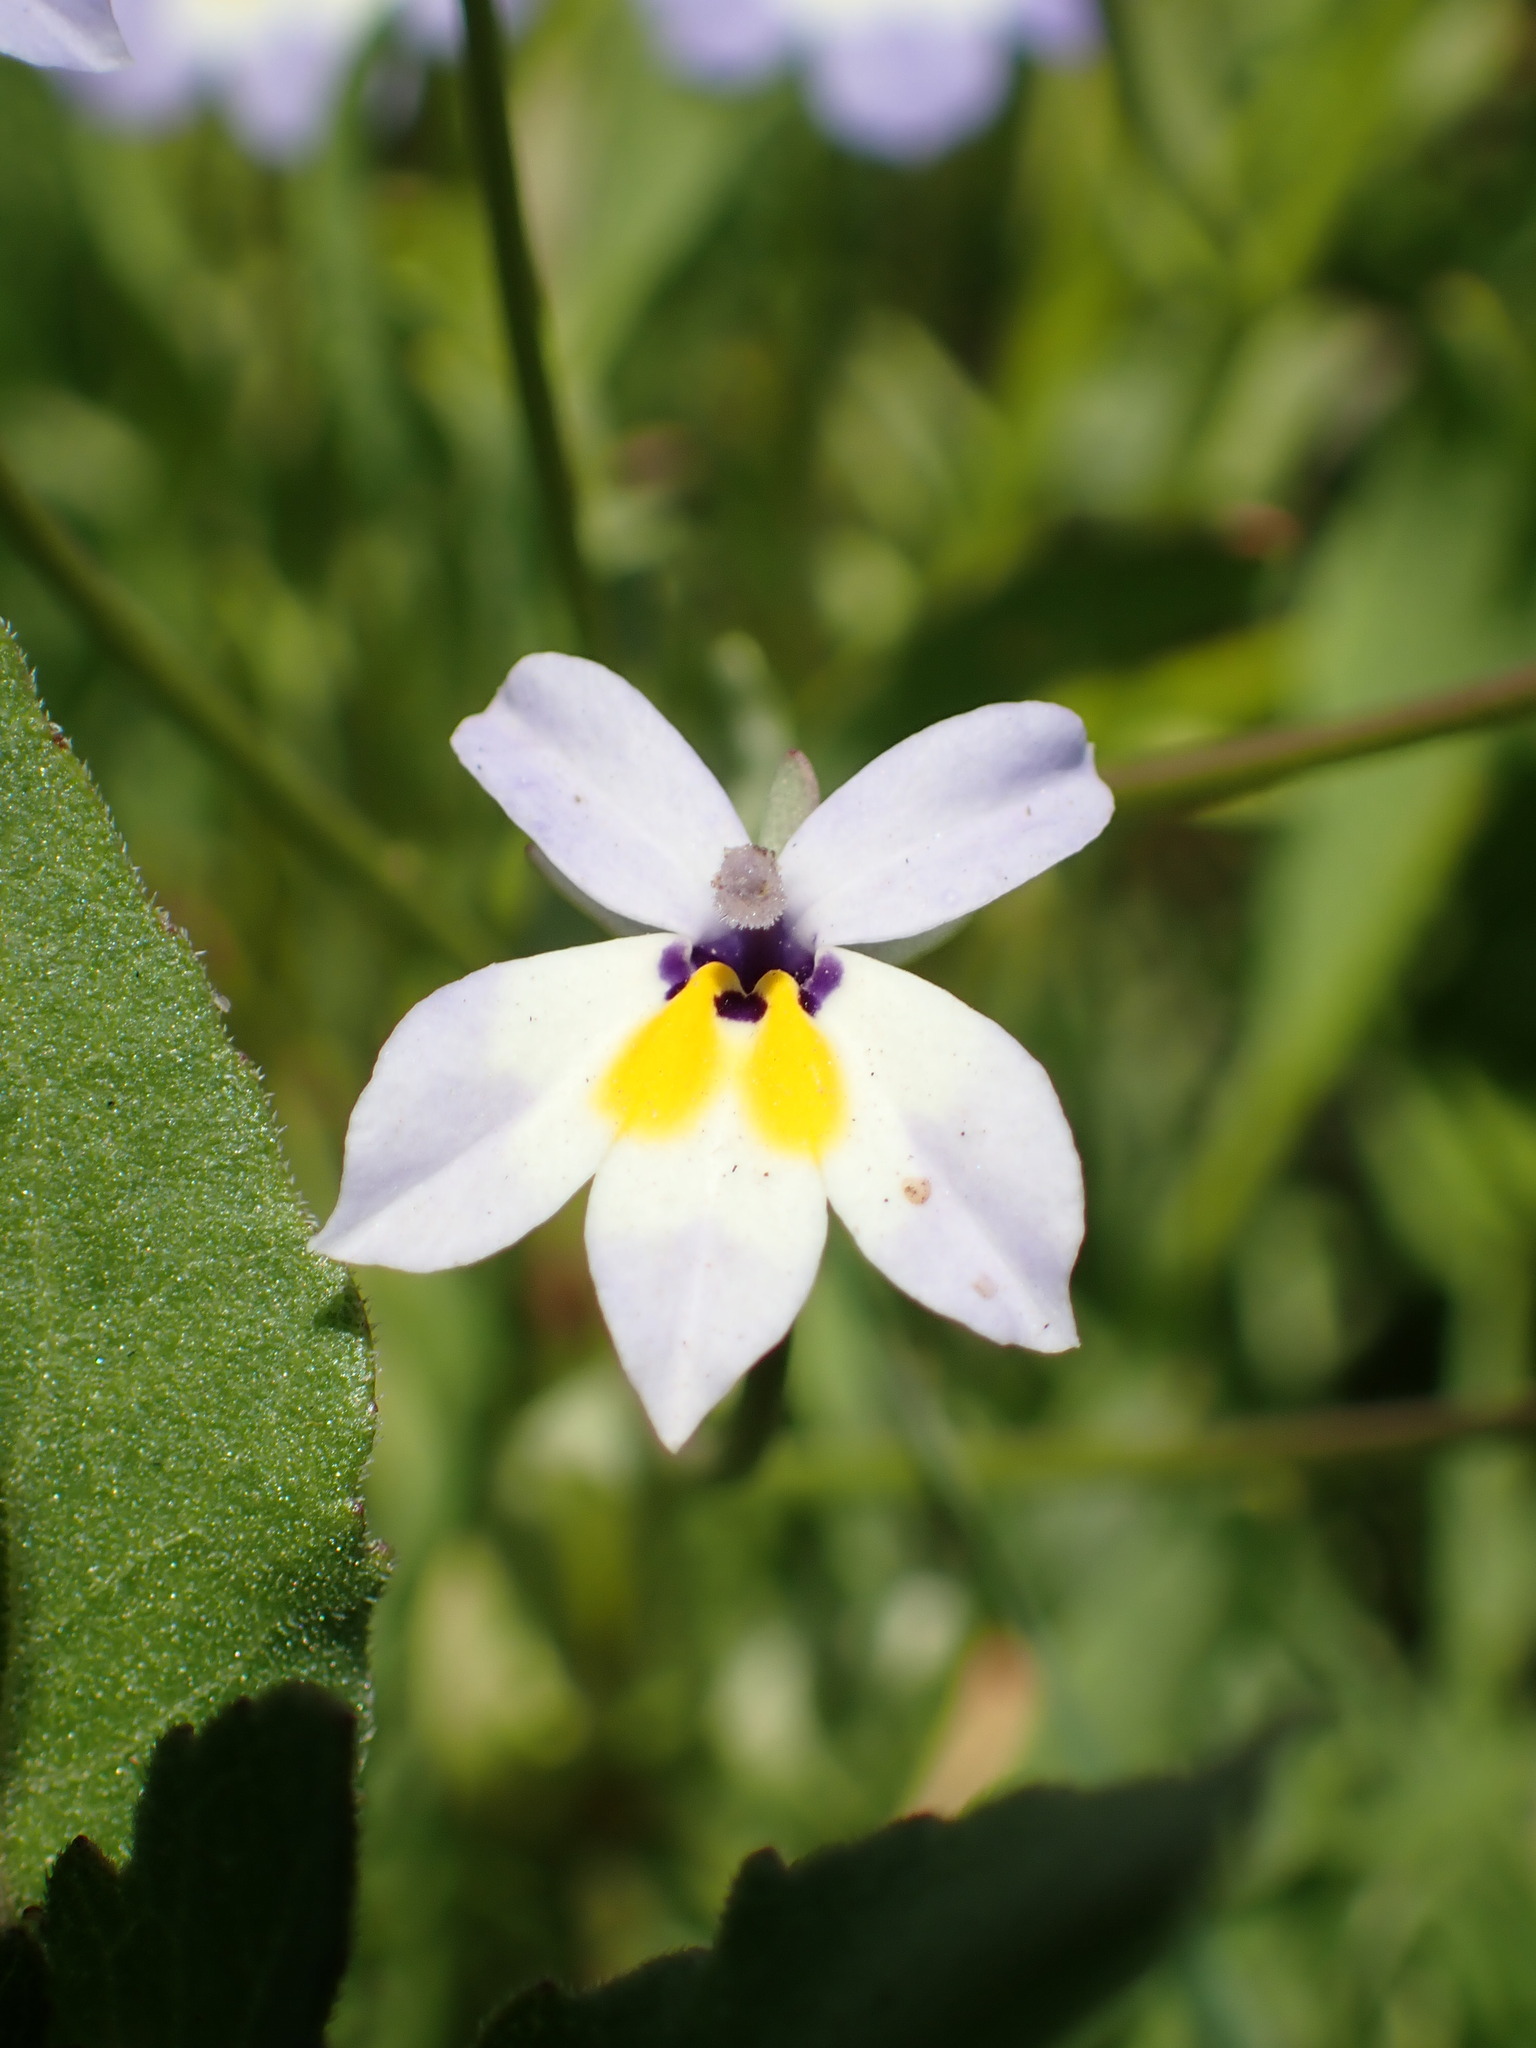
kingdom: Plantae
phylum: Tracheophyta
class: Magnoliopsida
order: Asterales
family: Campanulaceae
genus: Downingia
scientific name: Downingia pulchella
